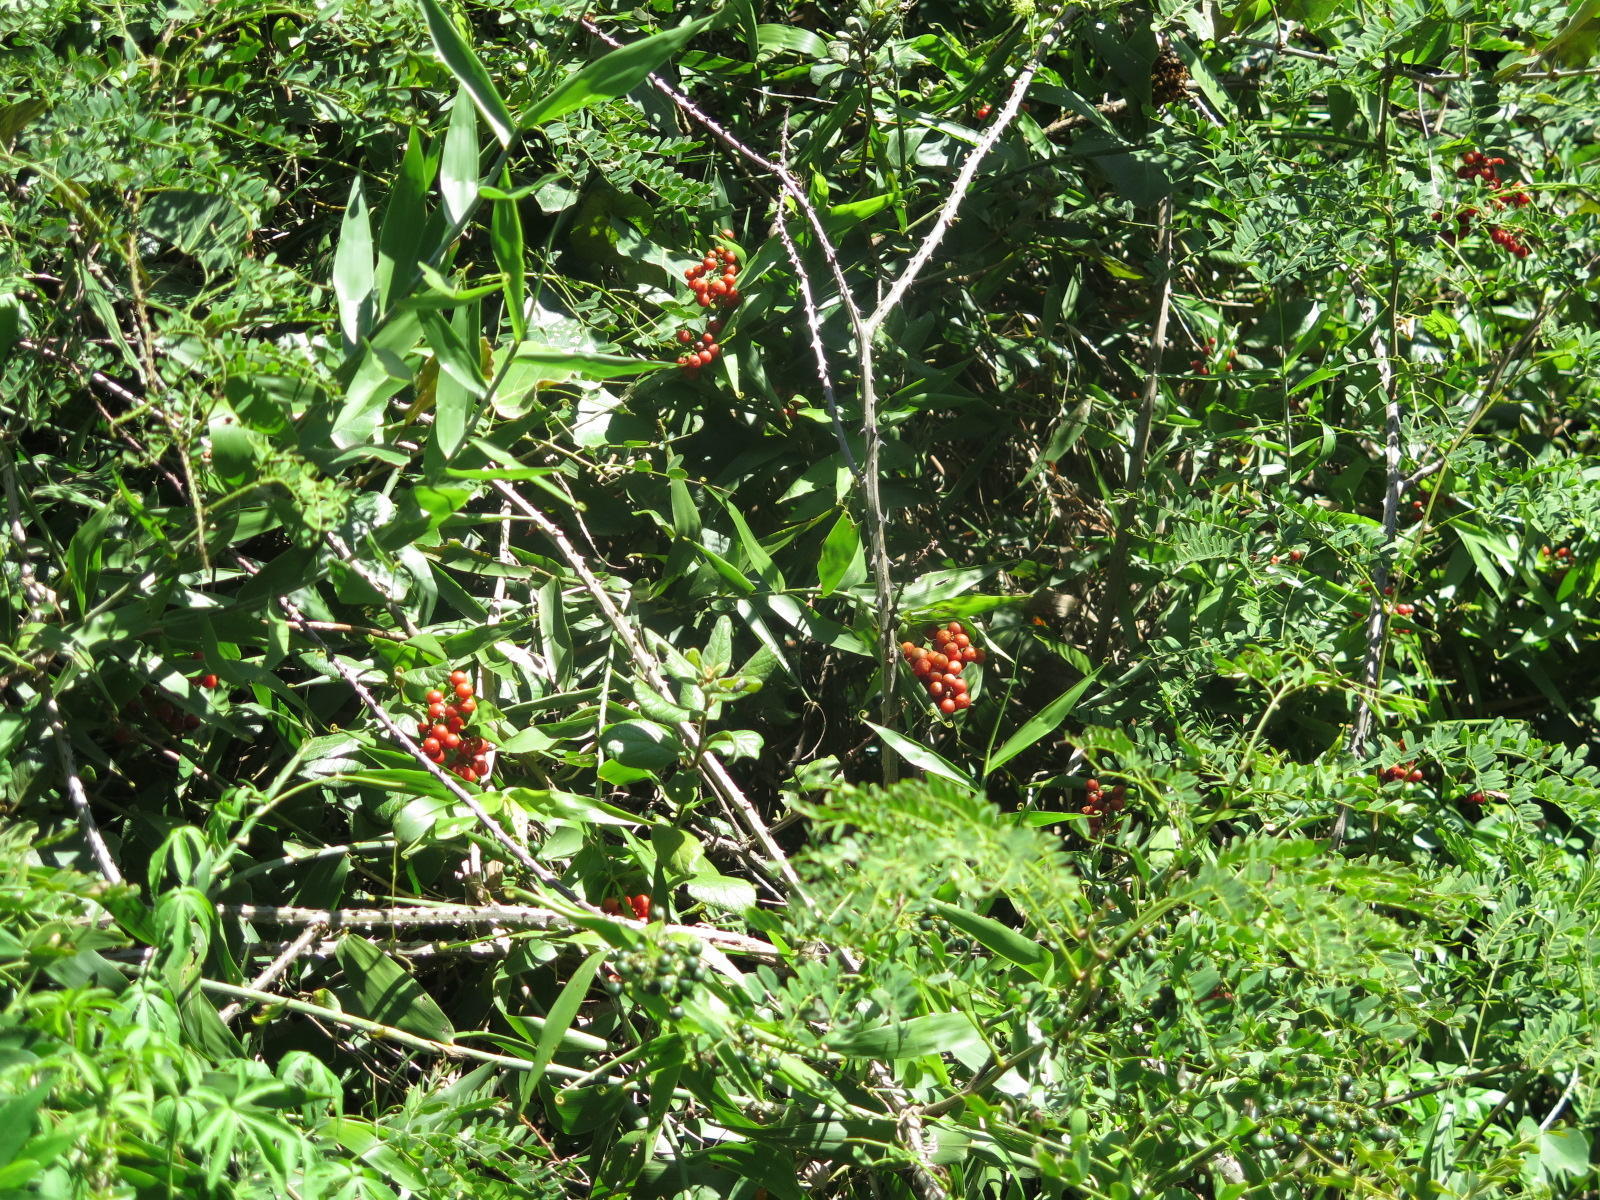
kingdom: Plantae
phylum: Tracheophyta
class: Liliopsida
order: Poales
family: Flagellariaceae
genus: Flagellaria
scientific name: Flagellaria guineensis
